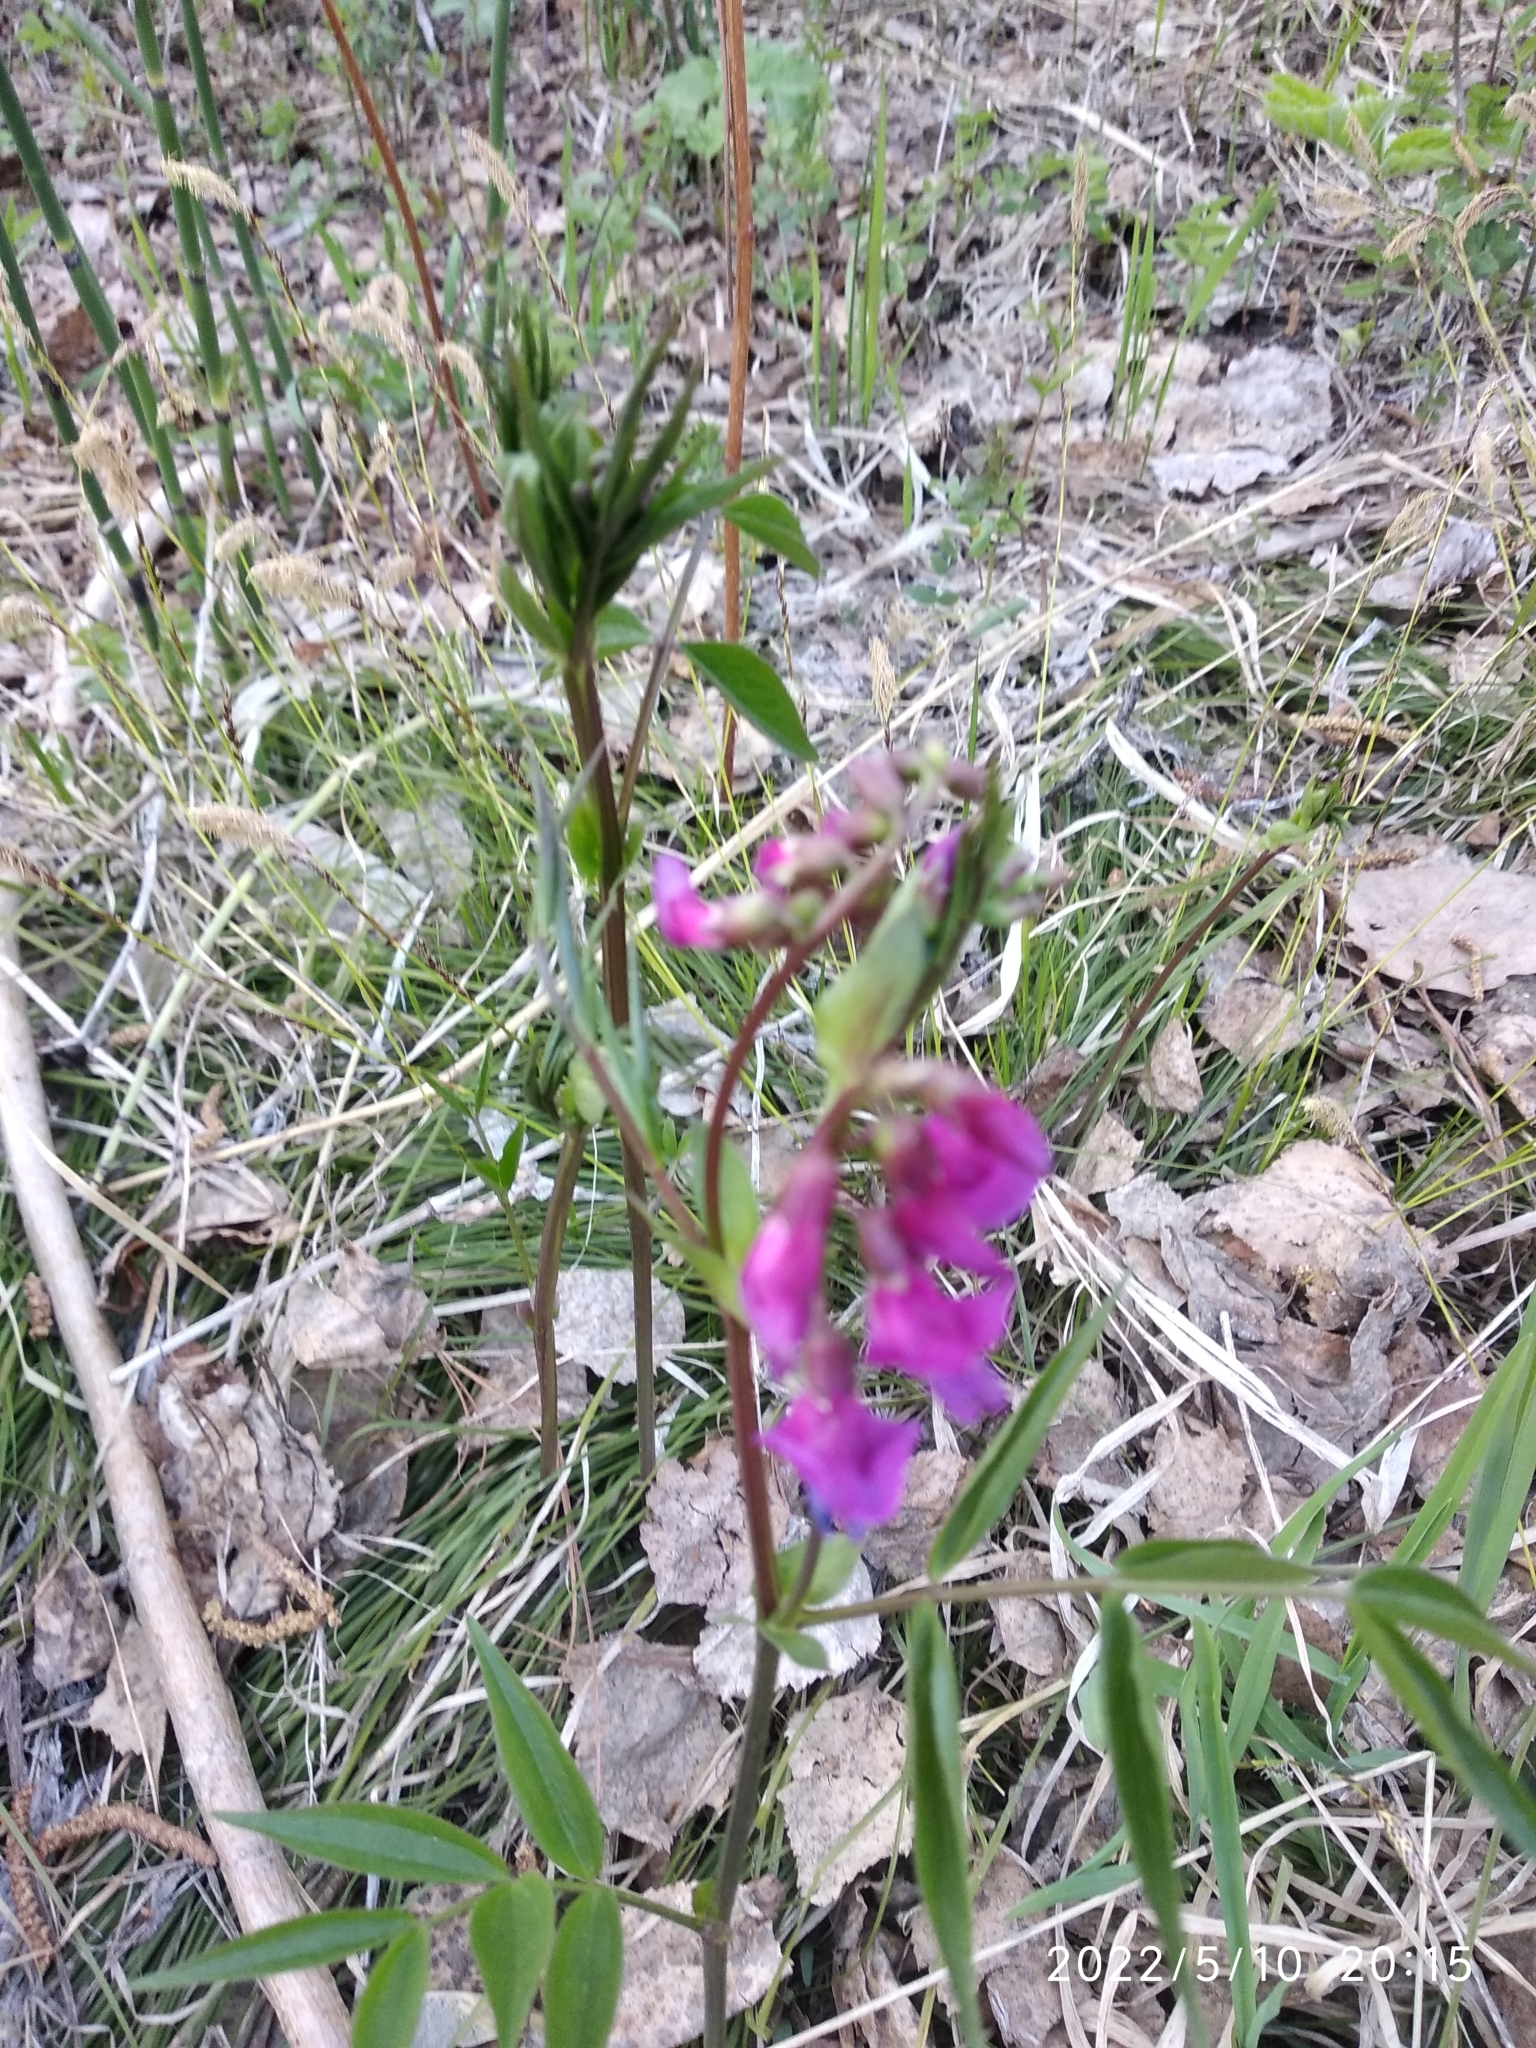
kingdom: Plantae
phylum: Tracheophyta
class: Magnoliopsida
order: Fabales
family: Fabaceae
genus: Lathyrus
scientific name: Lathyrus vernus
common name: Spring pea
